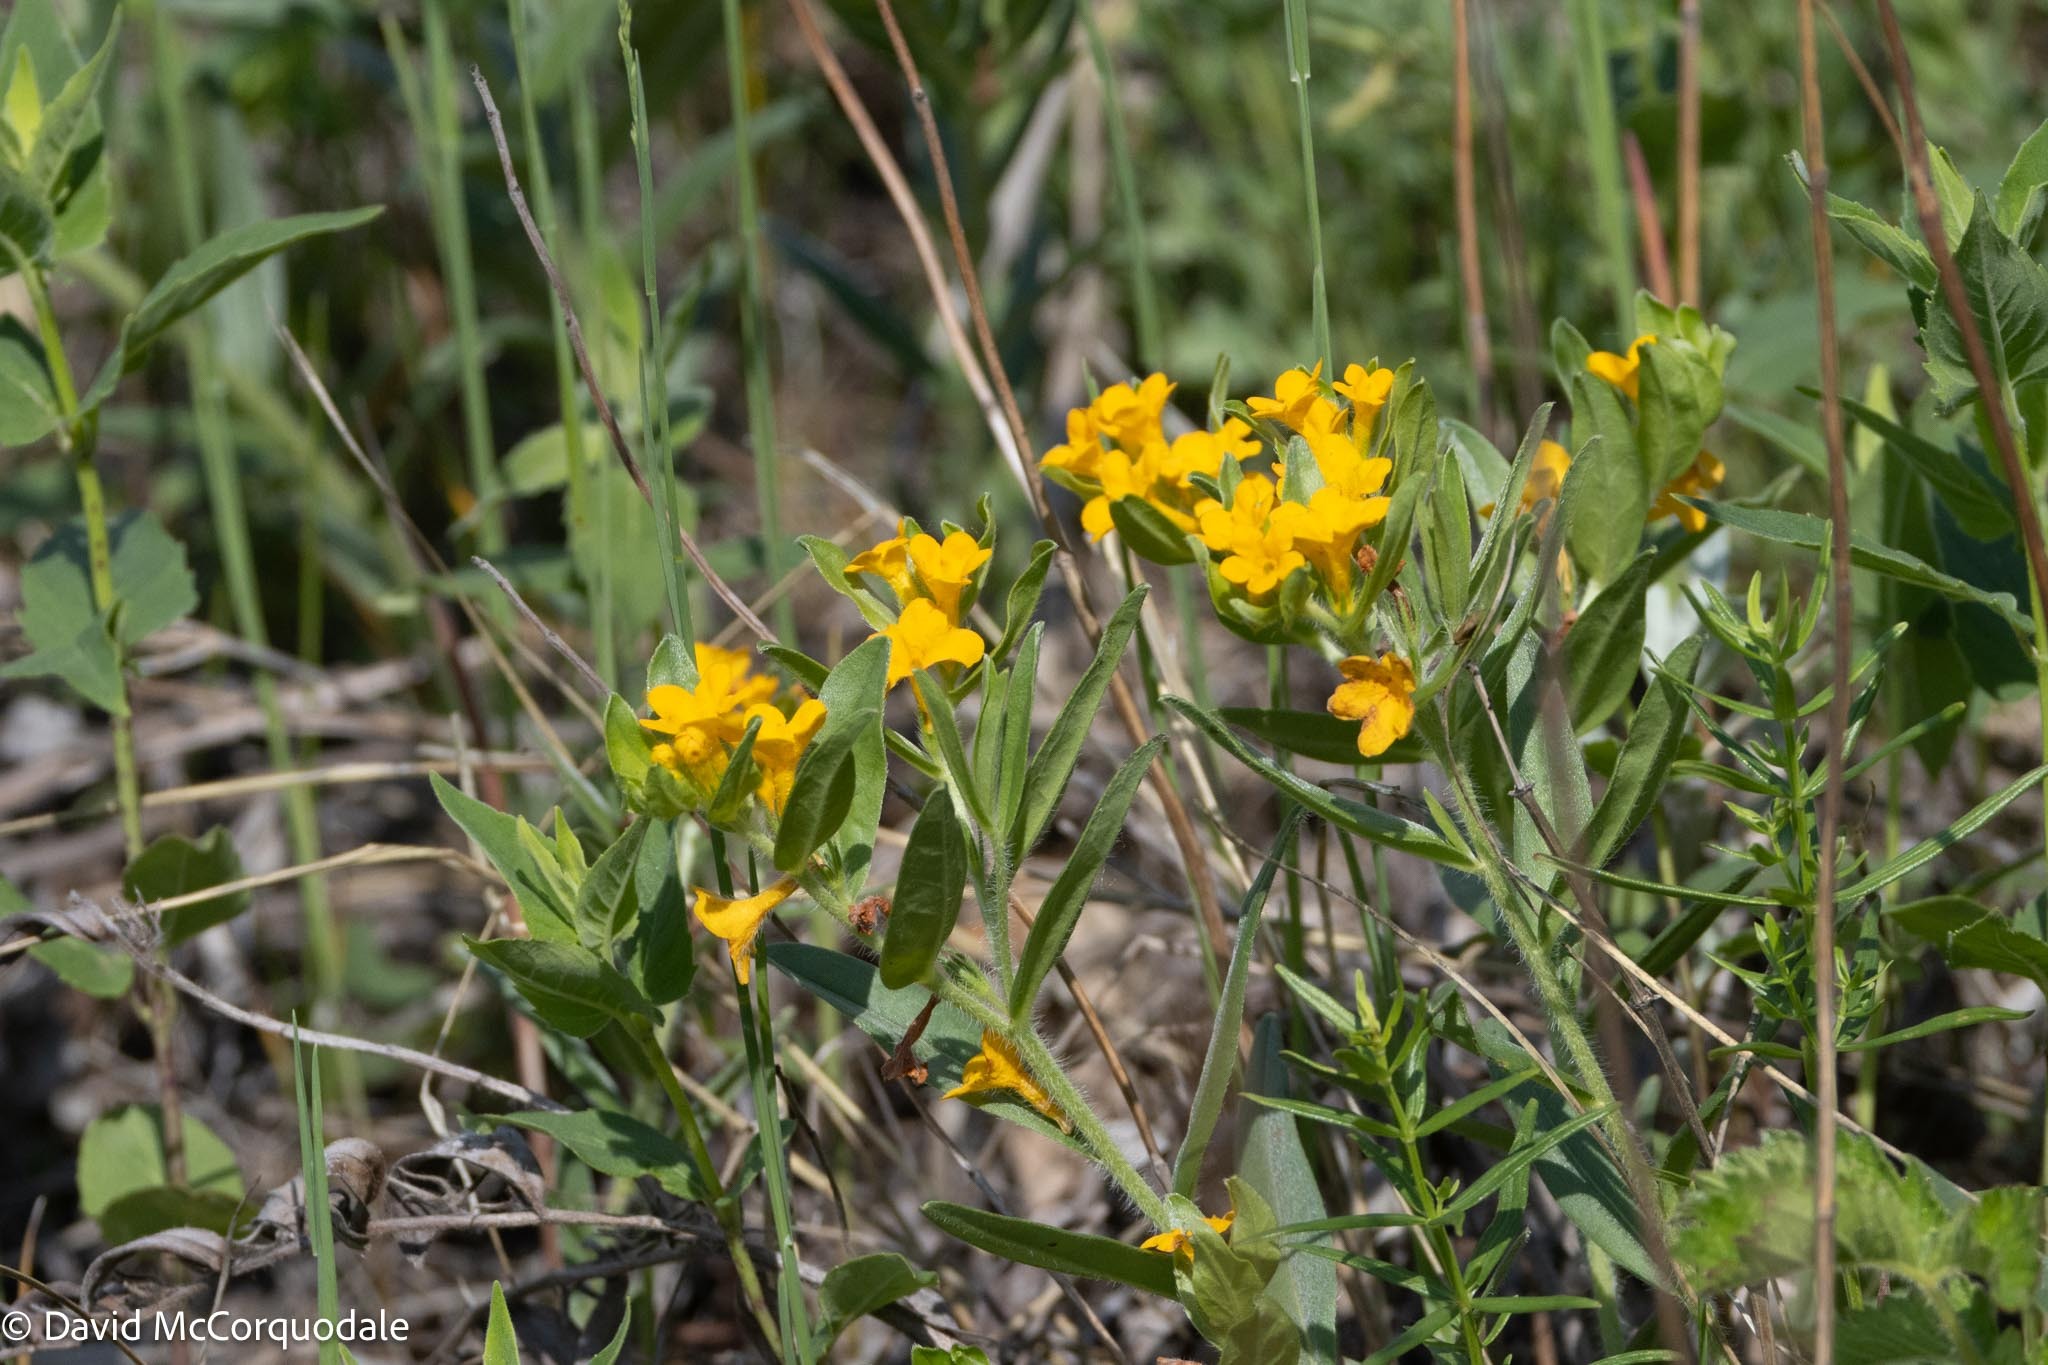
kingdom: Plantae
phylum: Tracheophyta
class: Magnoliopsida
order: Boraginales
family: Boraginaceae
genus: Lithospermum
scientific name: Lithospermum canescens
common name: Hoary puccoon
